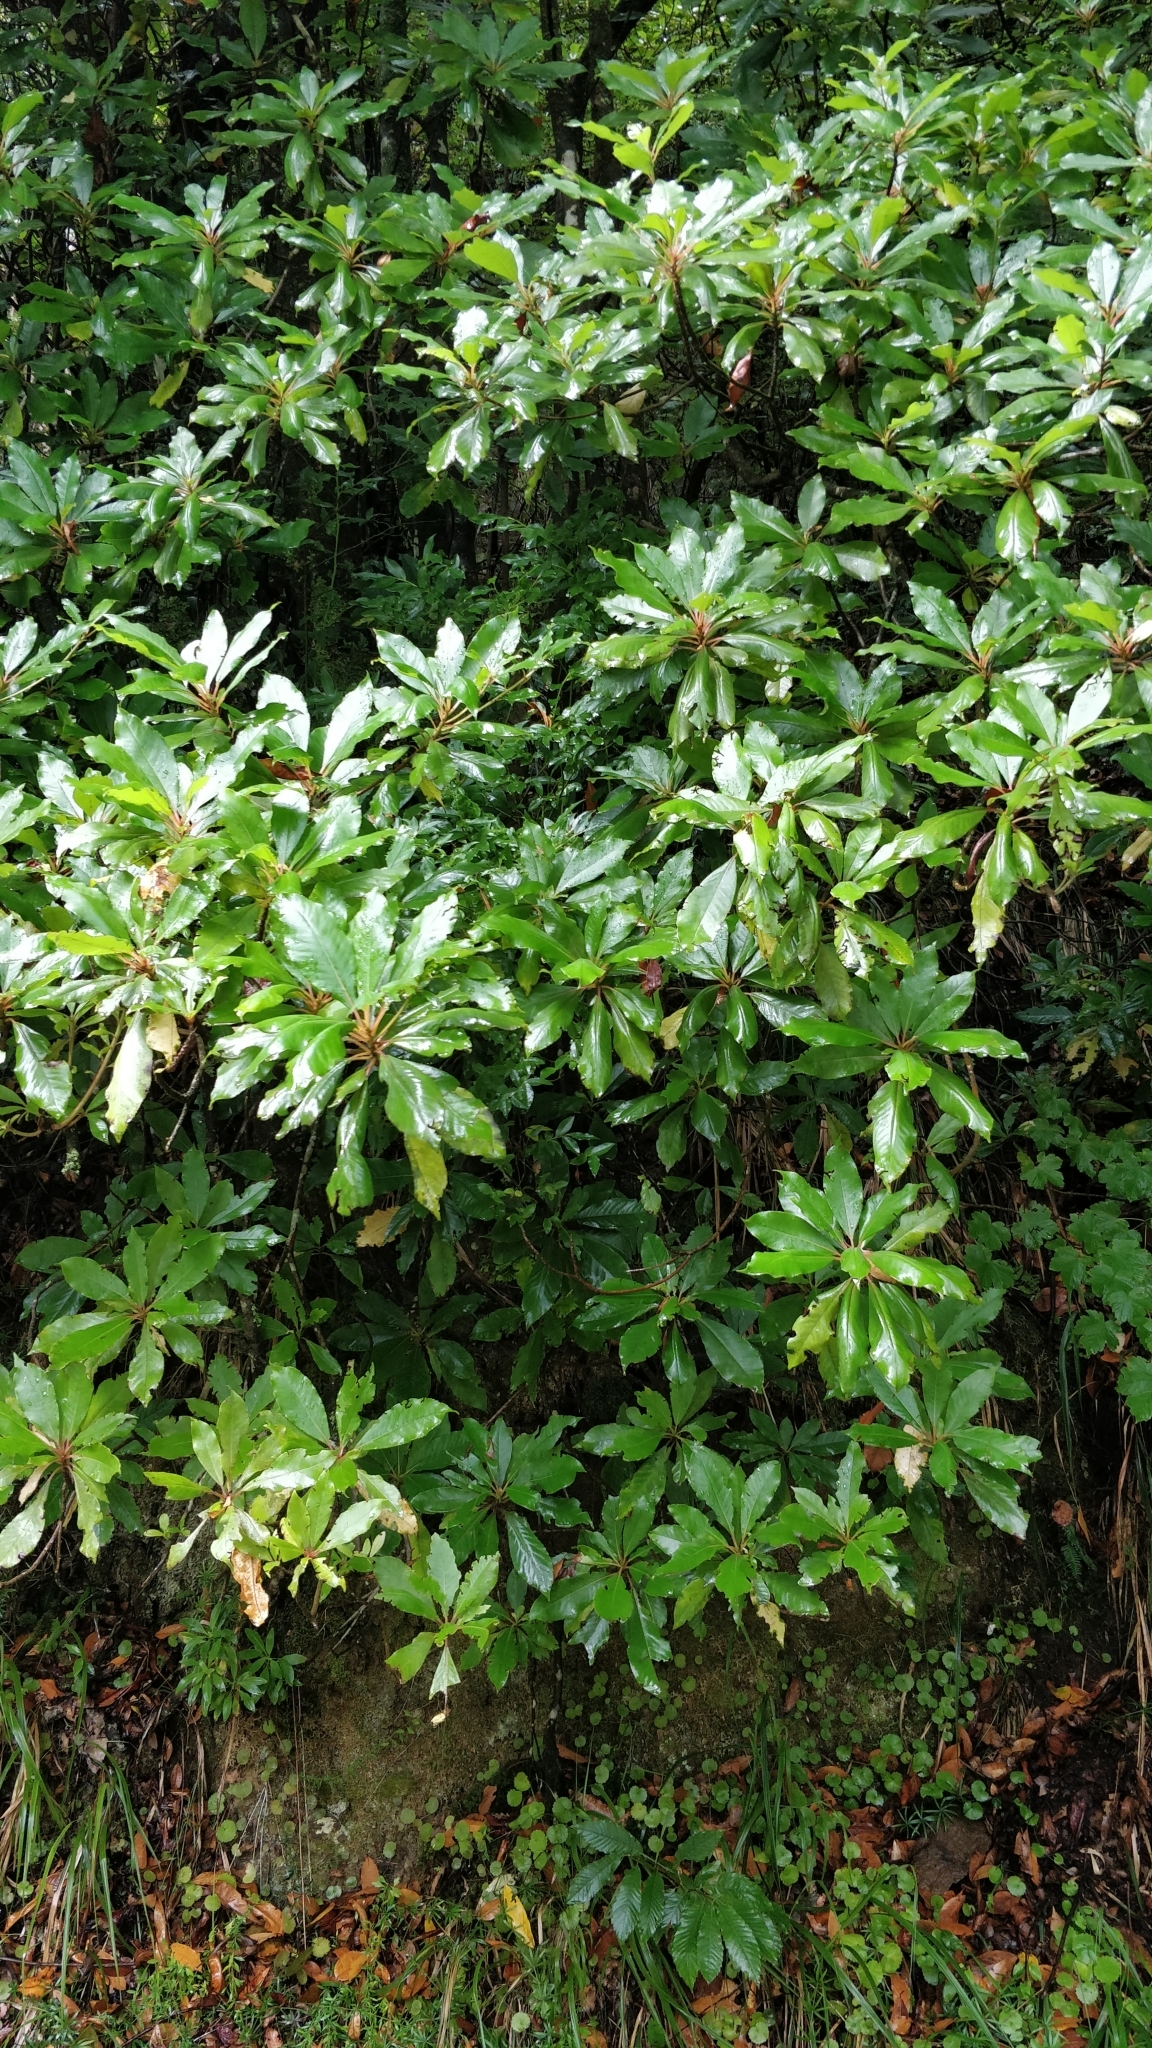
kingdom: Plantae
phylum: Tracheophyta
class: Magnoliopsida
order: Ericales
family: Clethraceae
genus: Clethra
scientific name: Clethra arborea
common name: Lily-of-the-valley-tree
